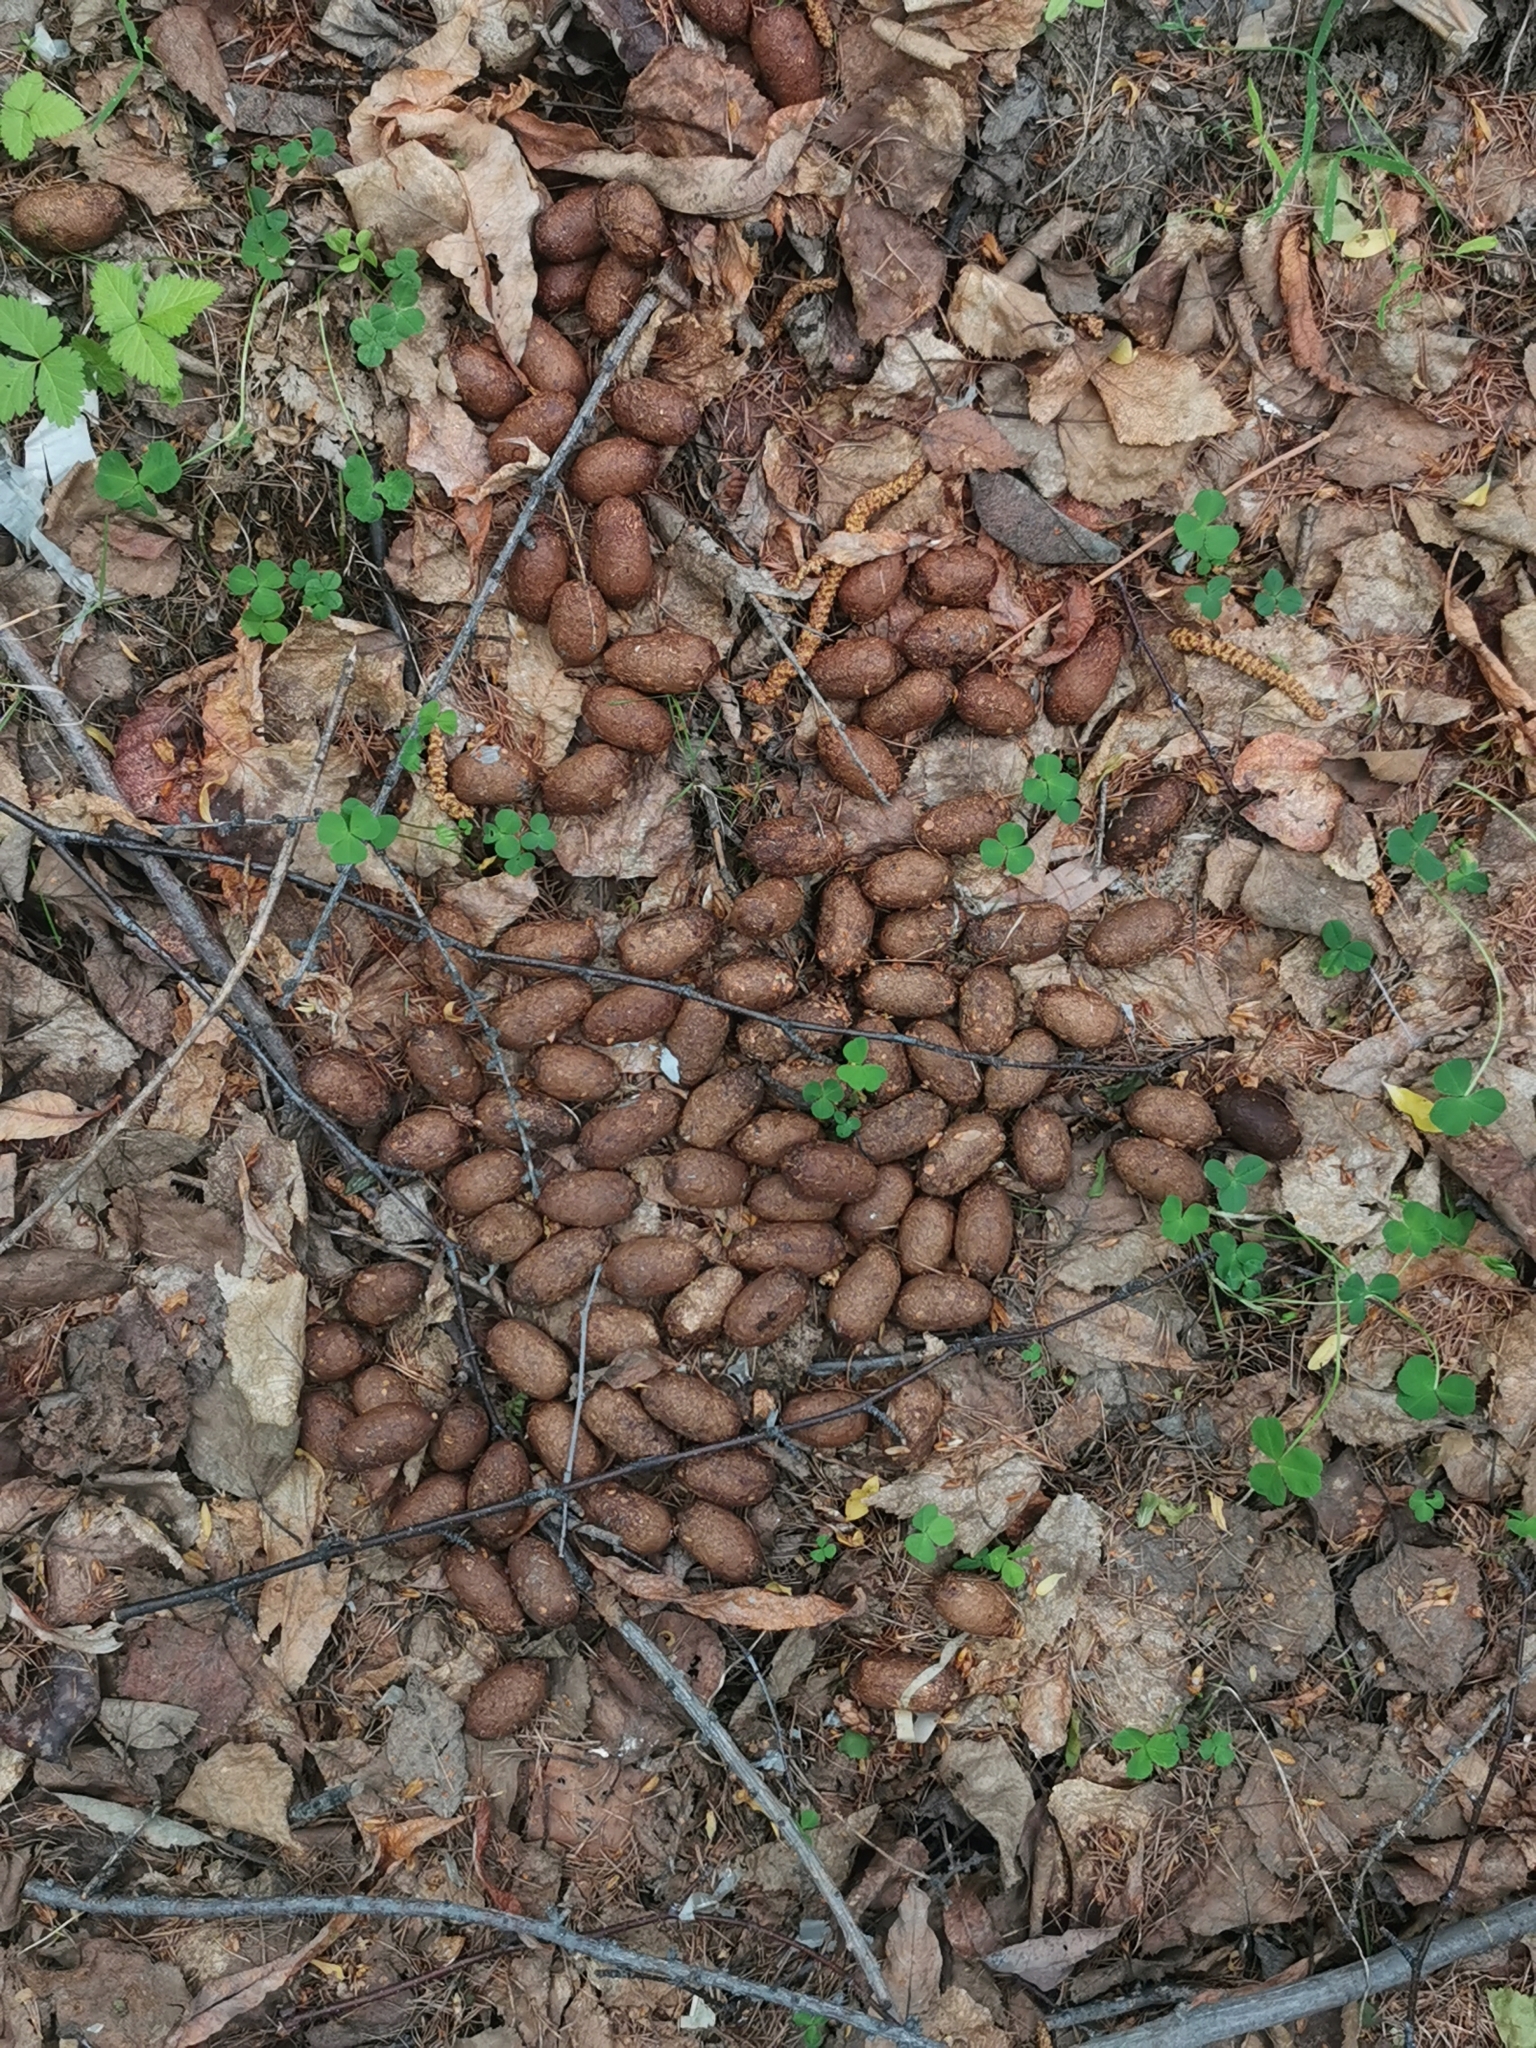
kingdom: Animalia
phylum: Chordata
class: Mammalia
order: Artiodactyla
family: Cervidae
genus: Alces
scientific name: Alces alces
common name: Moose
